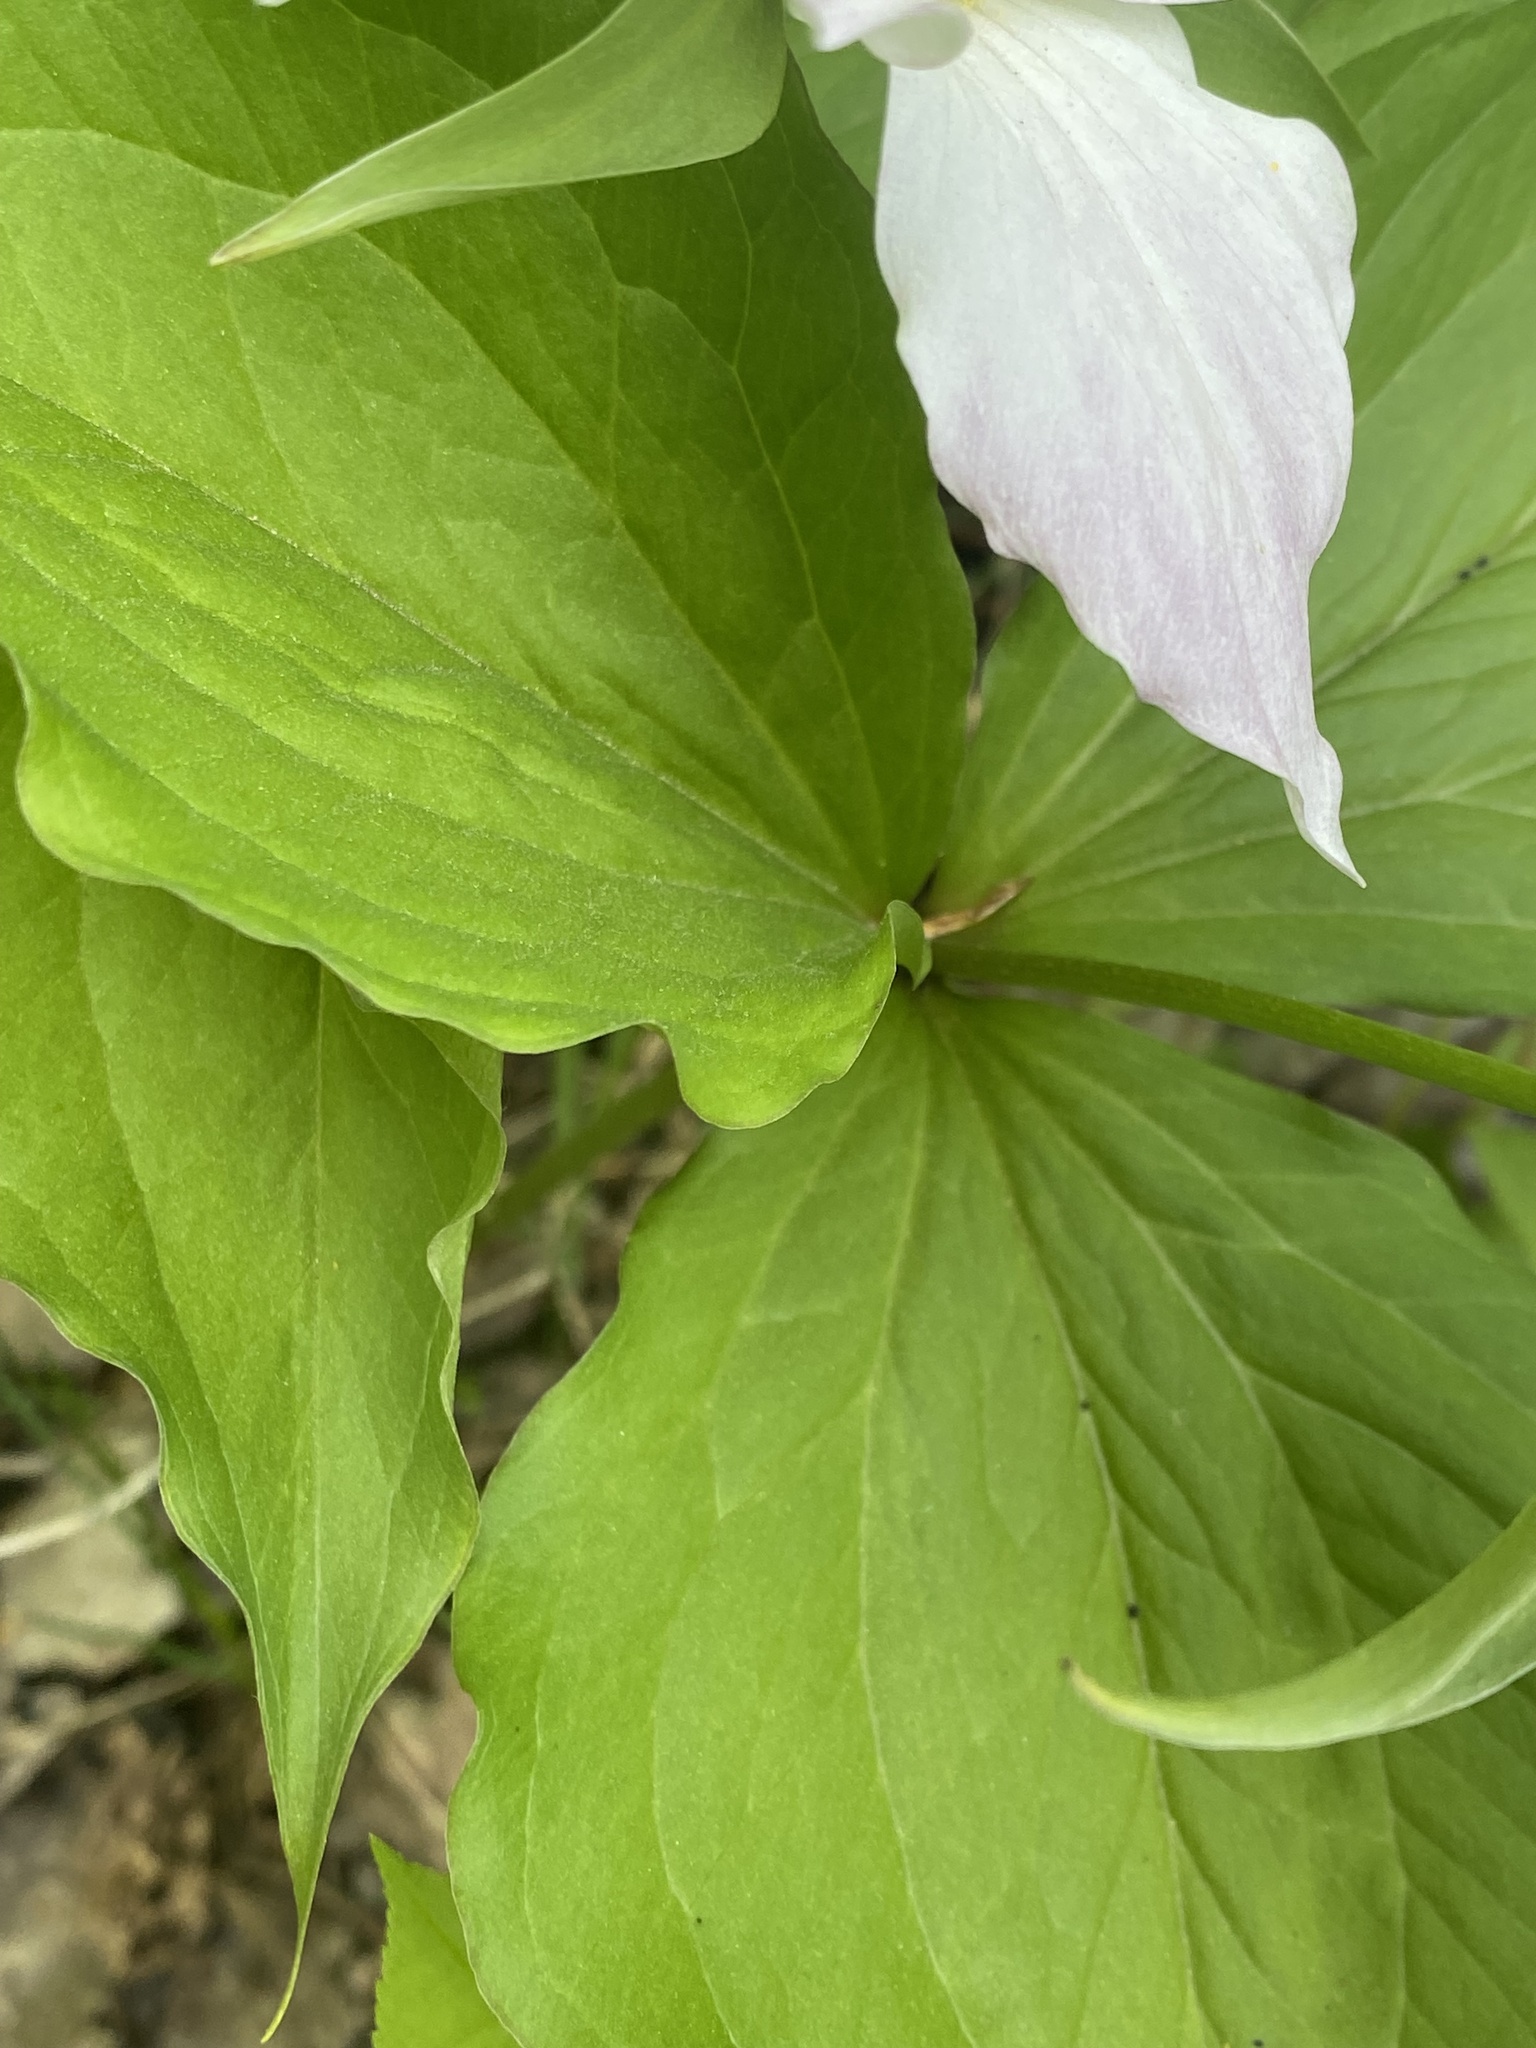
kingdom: Plantae
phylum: Tracheophyta
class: Liliopsida
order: Liliales
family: Melanthiaceae
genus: Trillium
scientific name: Trillium grandiflorum
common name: Great white trillium
